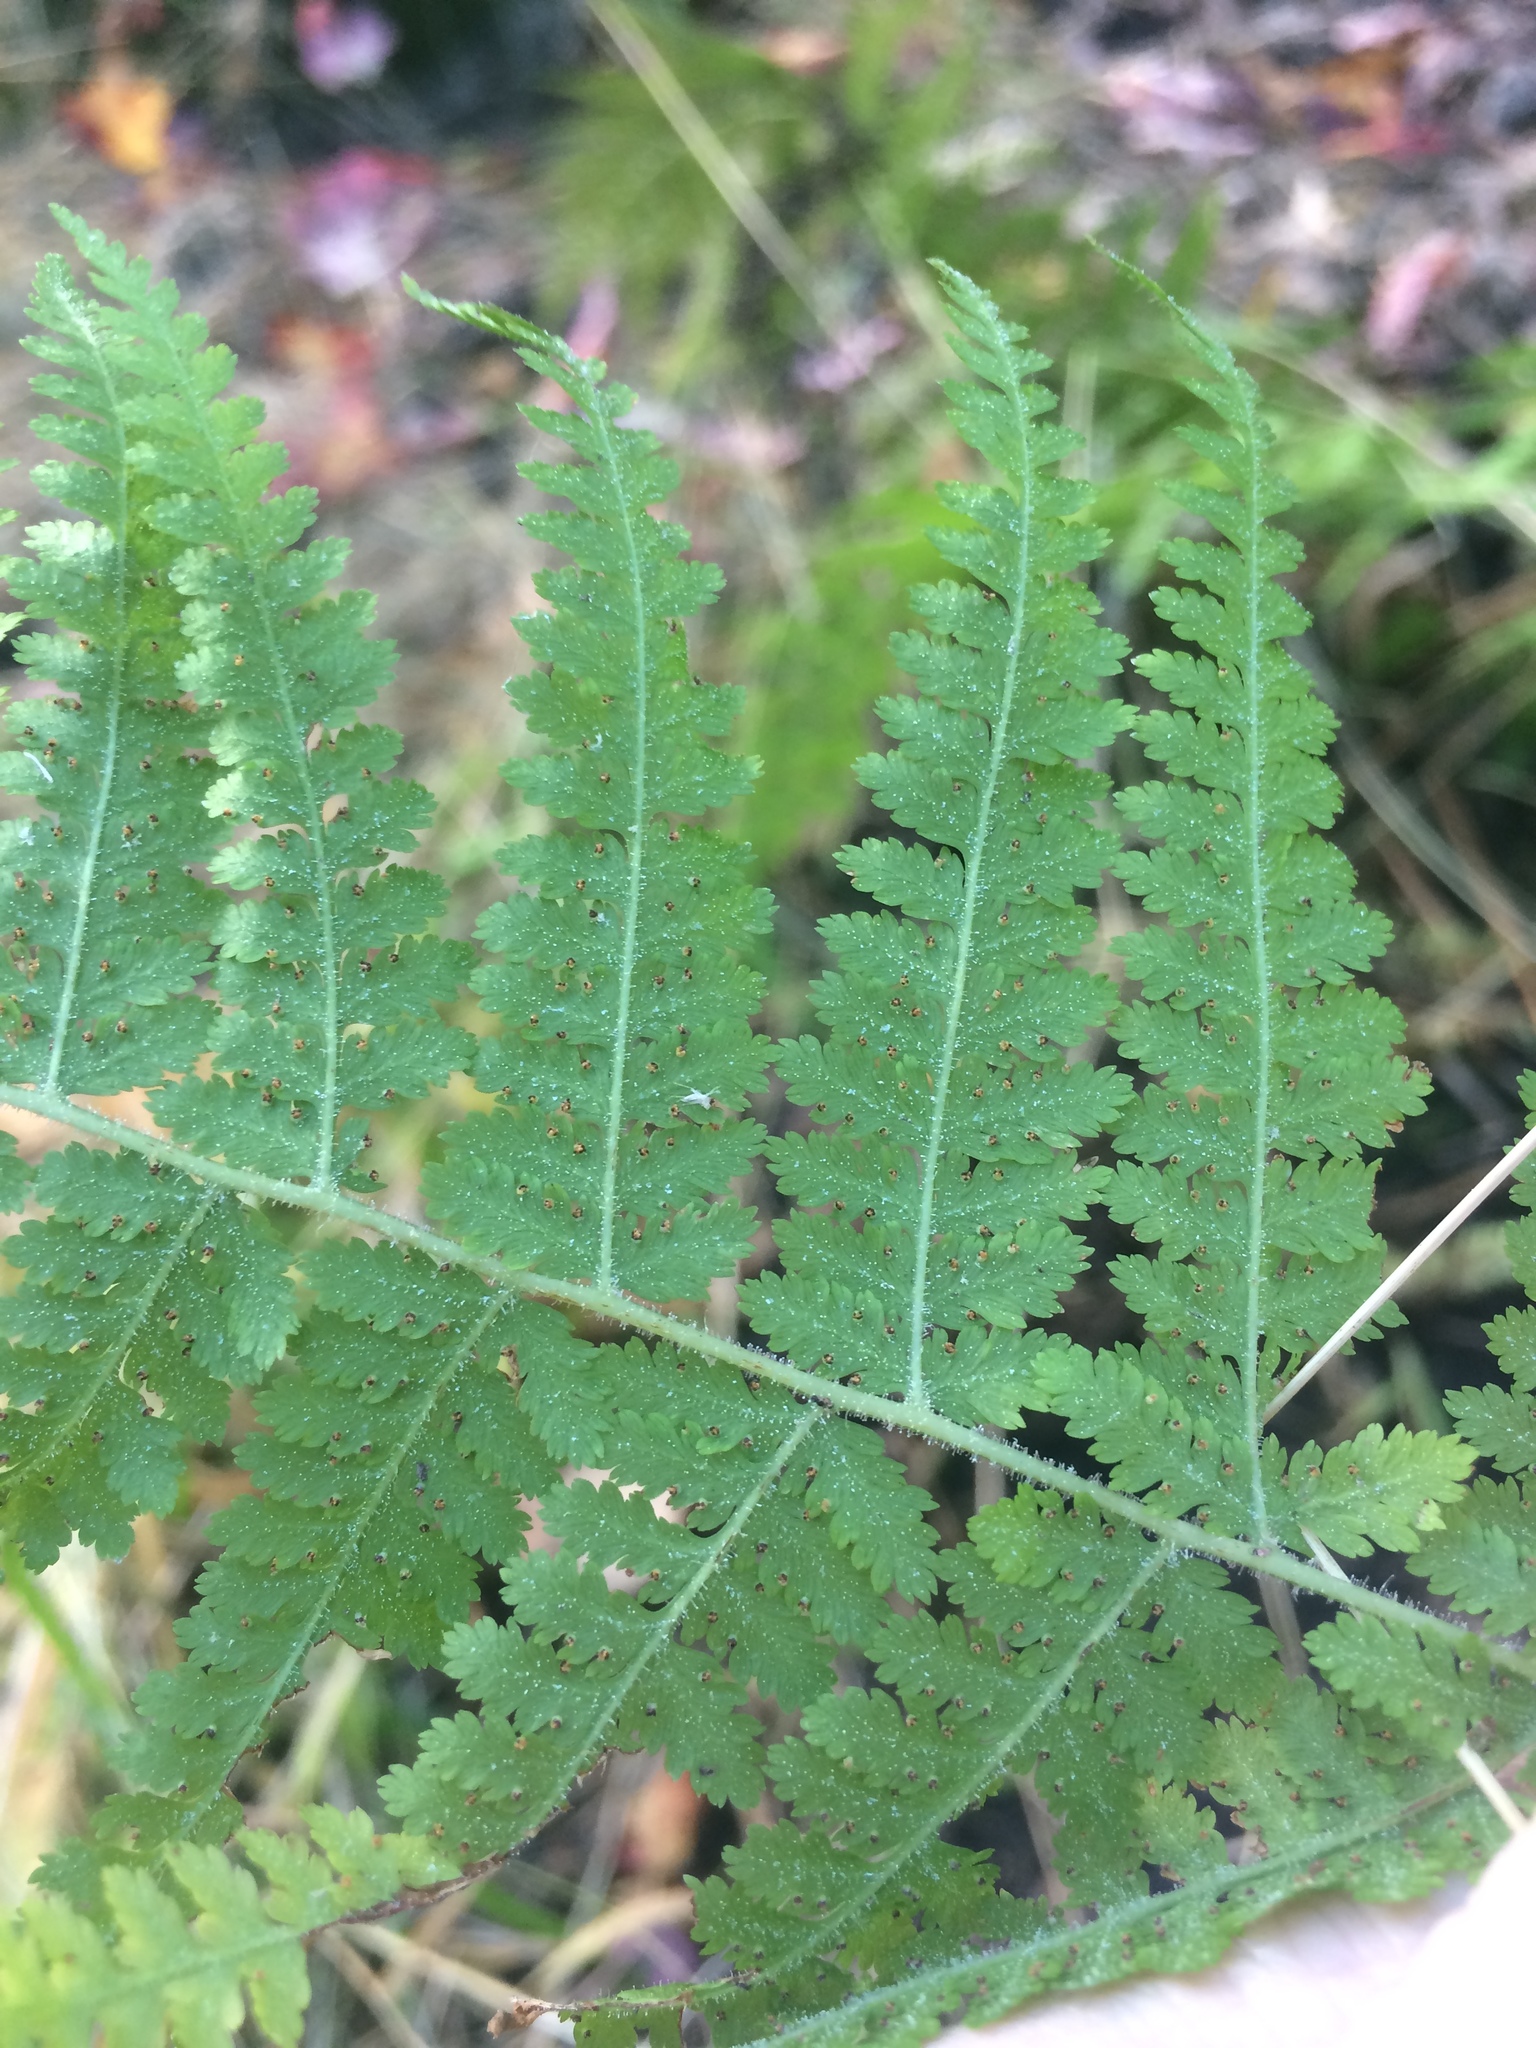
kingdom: Plantae
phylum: Tracheophyta
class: Polypodiopsida
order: Polypodiales
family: Dennstaedtiaceae
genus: Sitobolium
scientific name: Sitobolium punctilobum
